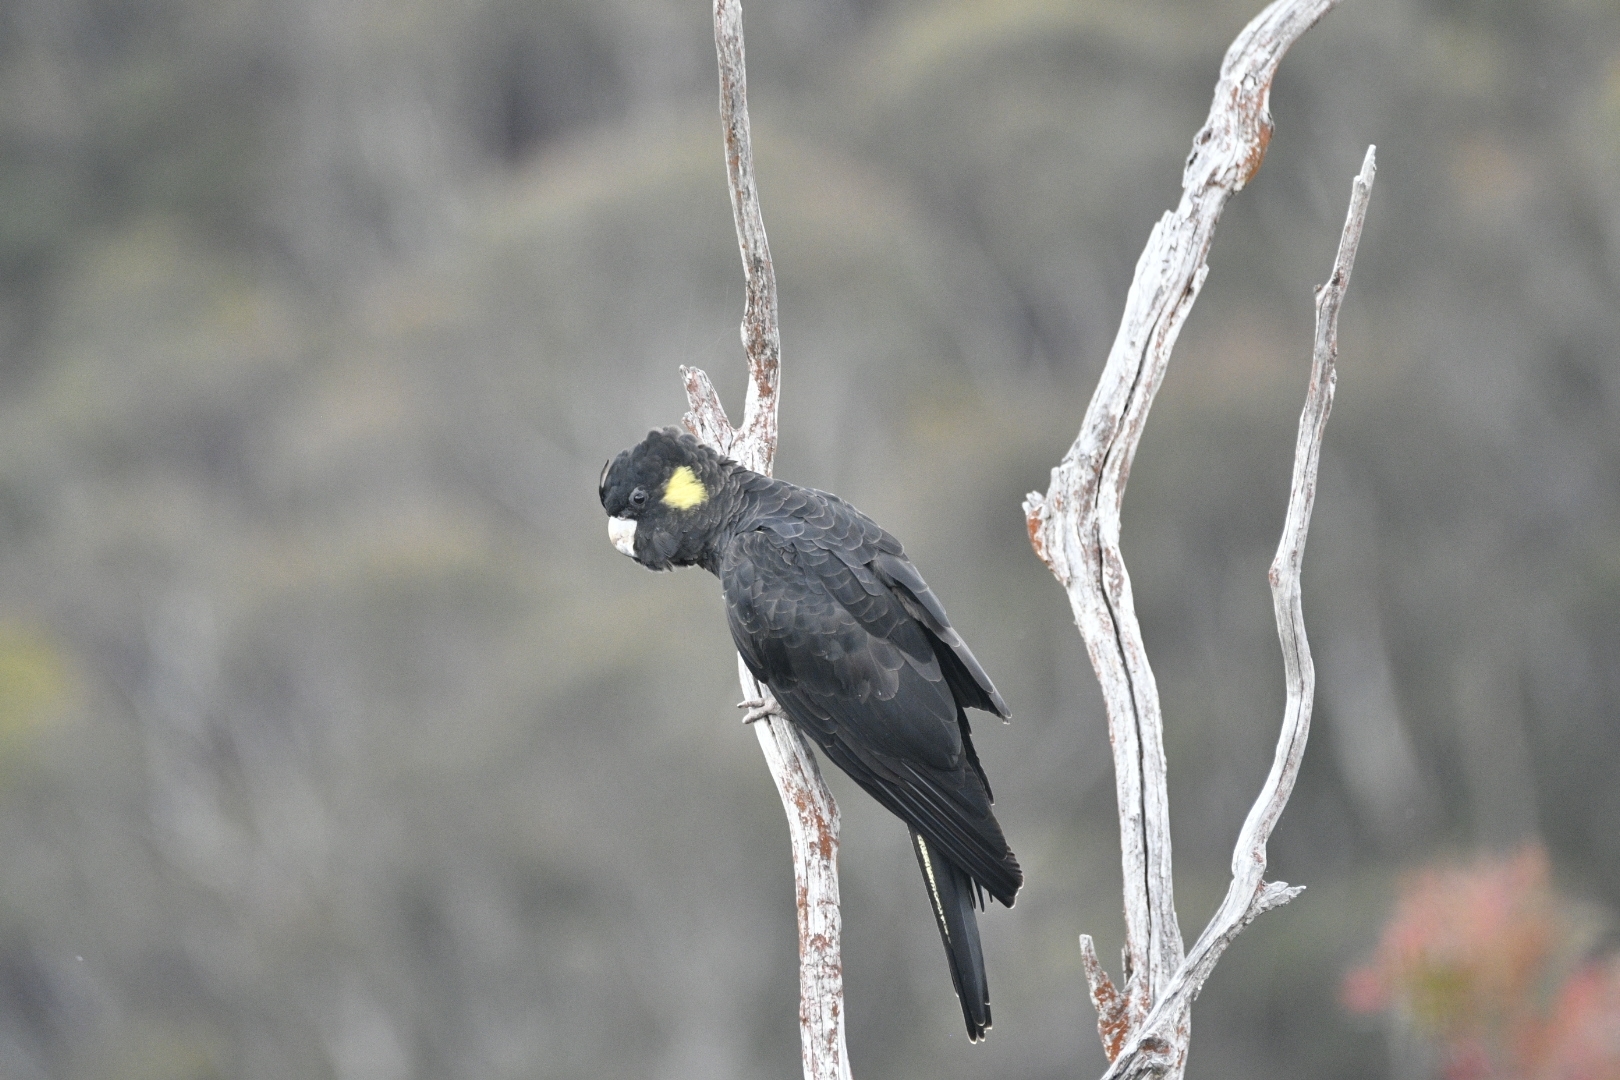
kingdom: Animalia
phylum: Chordata
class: Aves
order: Psittaciformes
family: Cacatuidae
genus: Zanda
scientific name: Zanda funerea
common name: Yellow-tailed black-cockatoo
